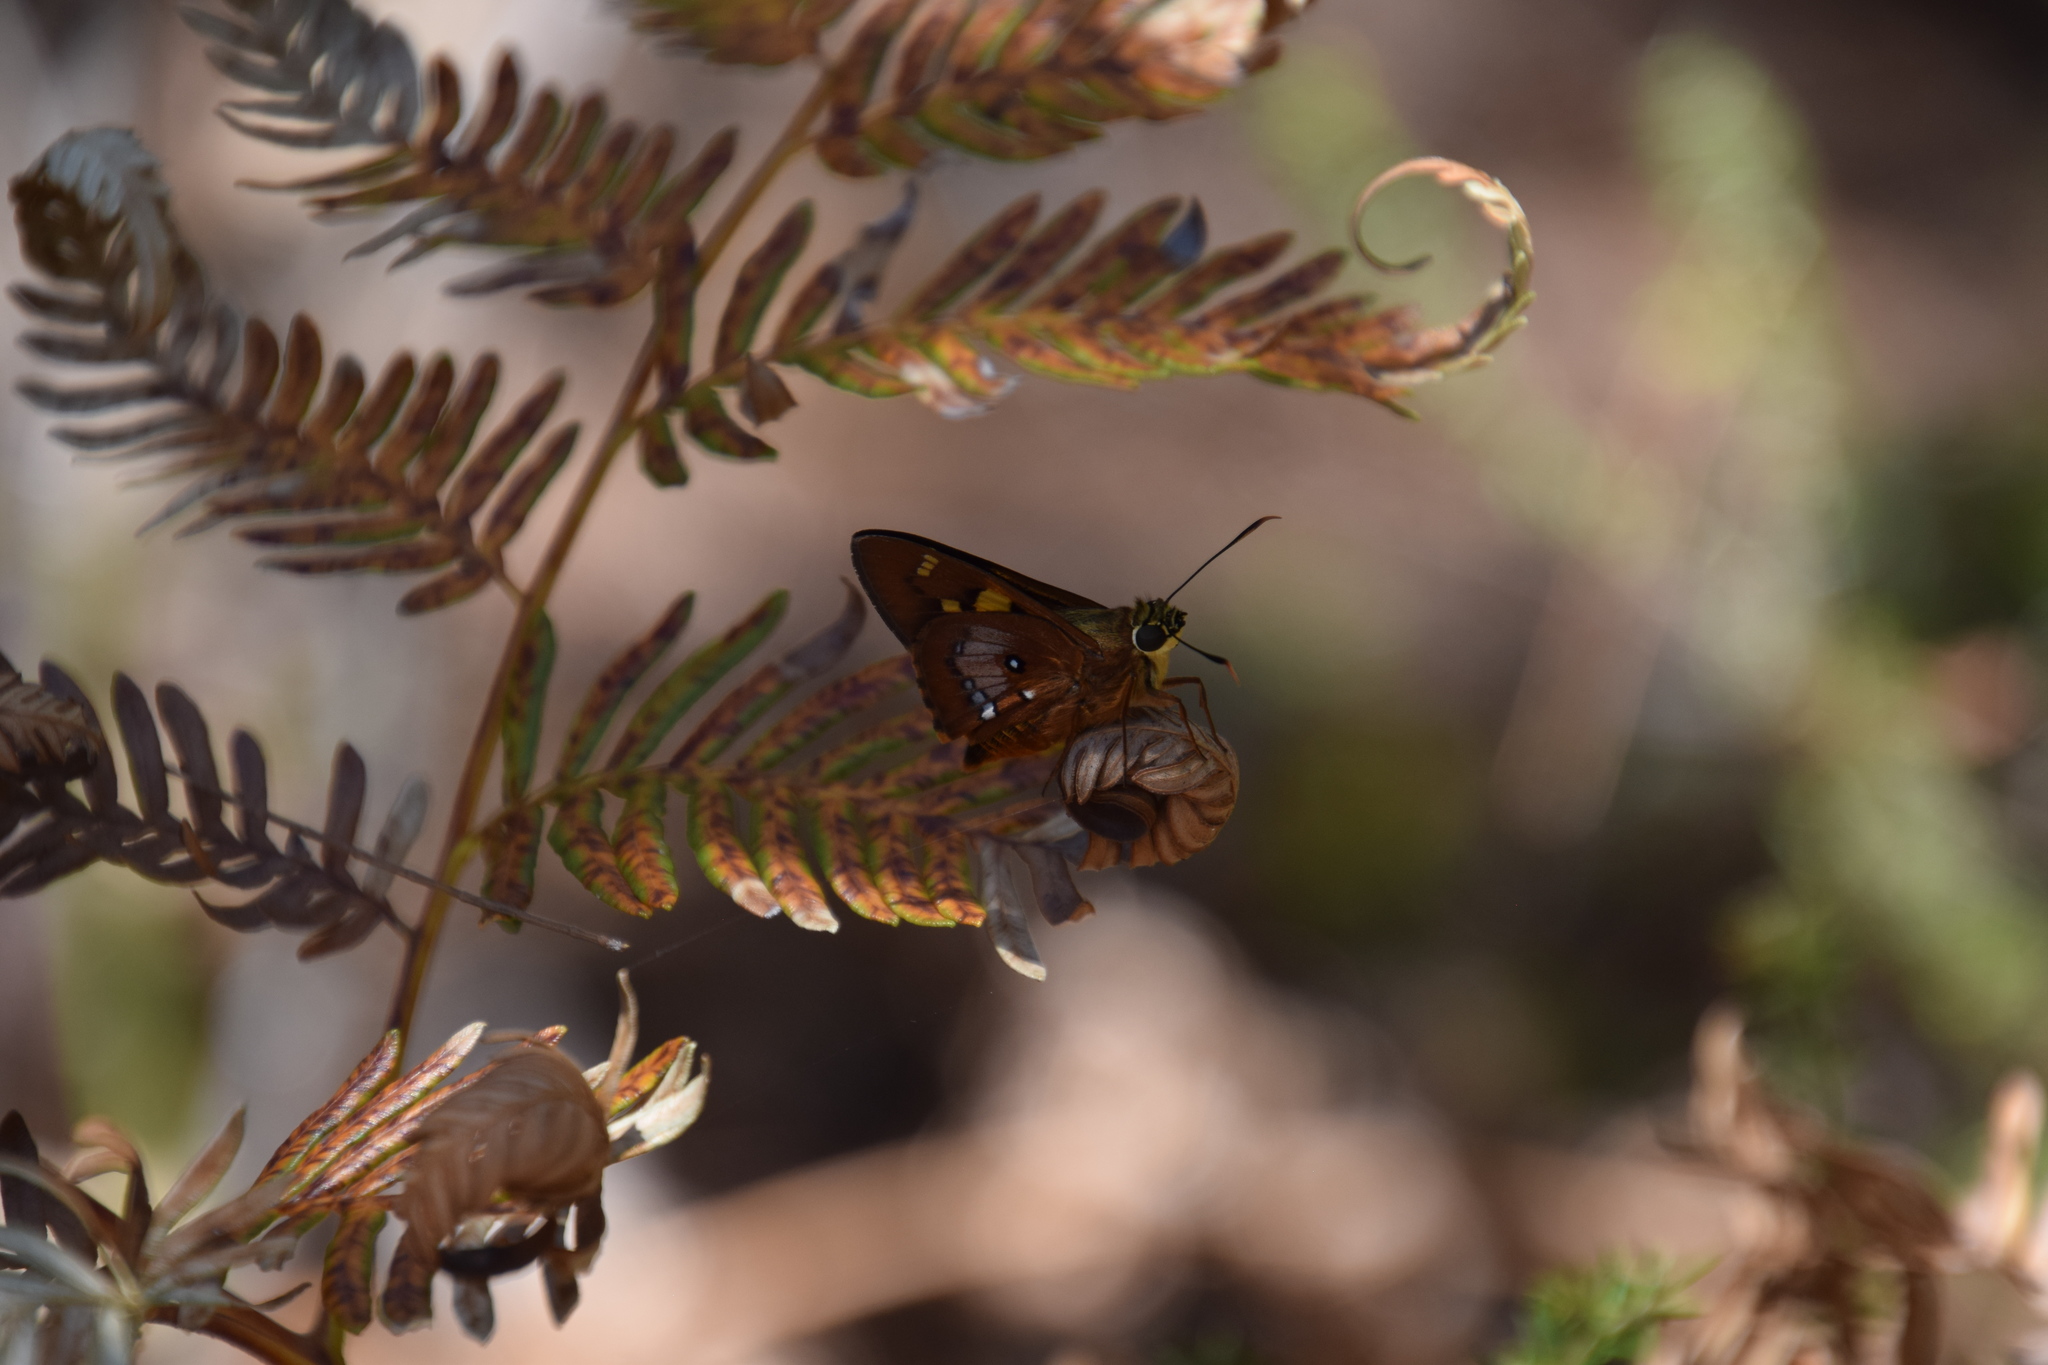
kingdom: Animalia
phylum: Arthropoda
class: Insecta
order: Lepidoptera
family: Hesperiidae
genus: Trapezites
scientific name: Trapezites symmomus
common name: Splendid ochre
